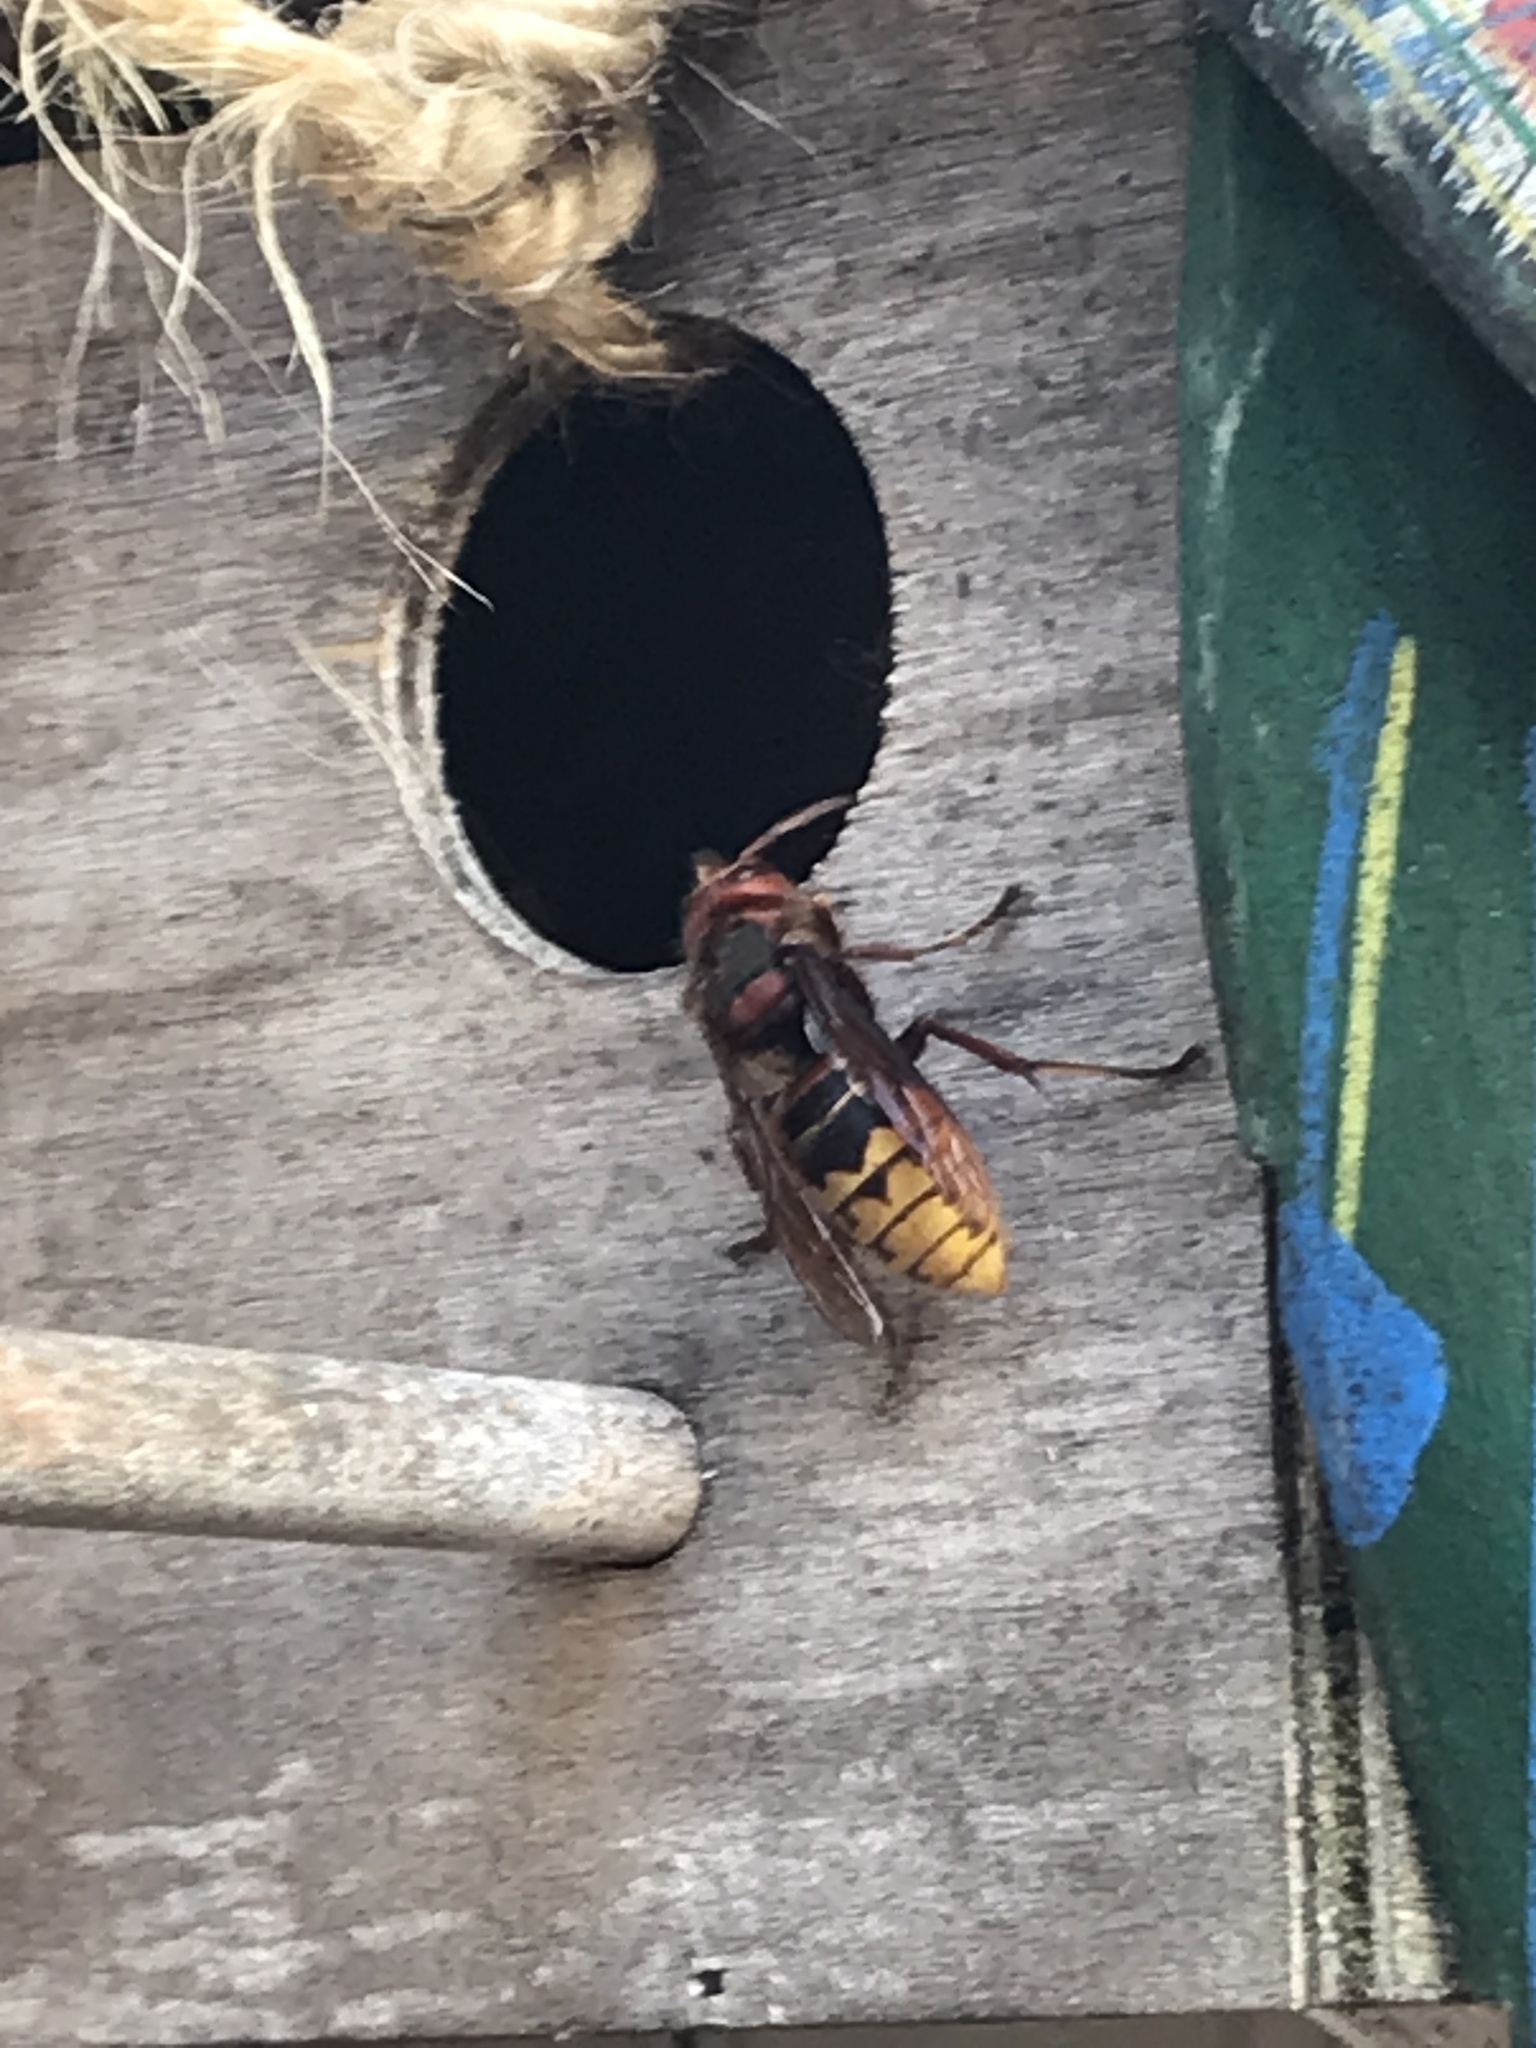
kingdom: Animalia
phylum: Arthropoda
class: Insecta
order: Hymenoptera
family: Vespidae
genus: Vespa
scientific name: Vespa crabro
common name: Hornet
